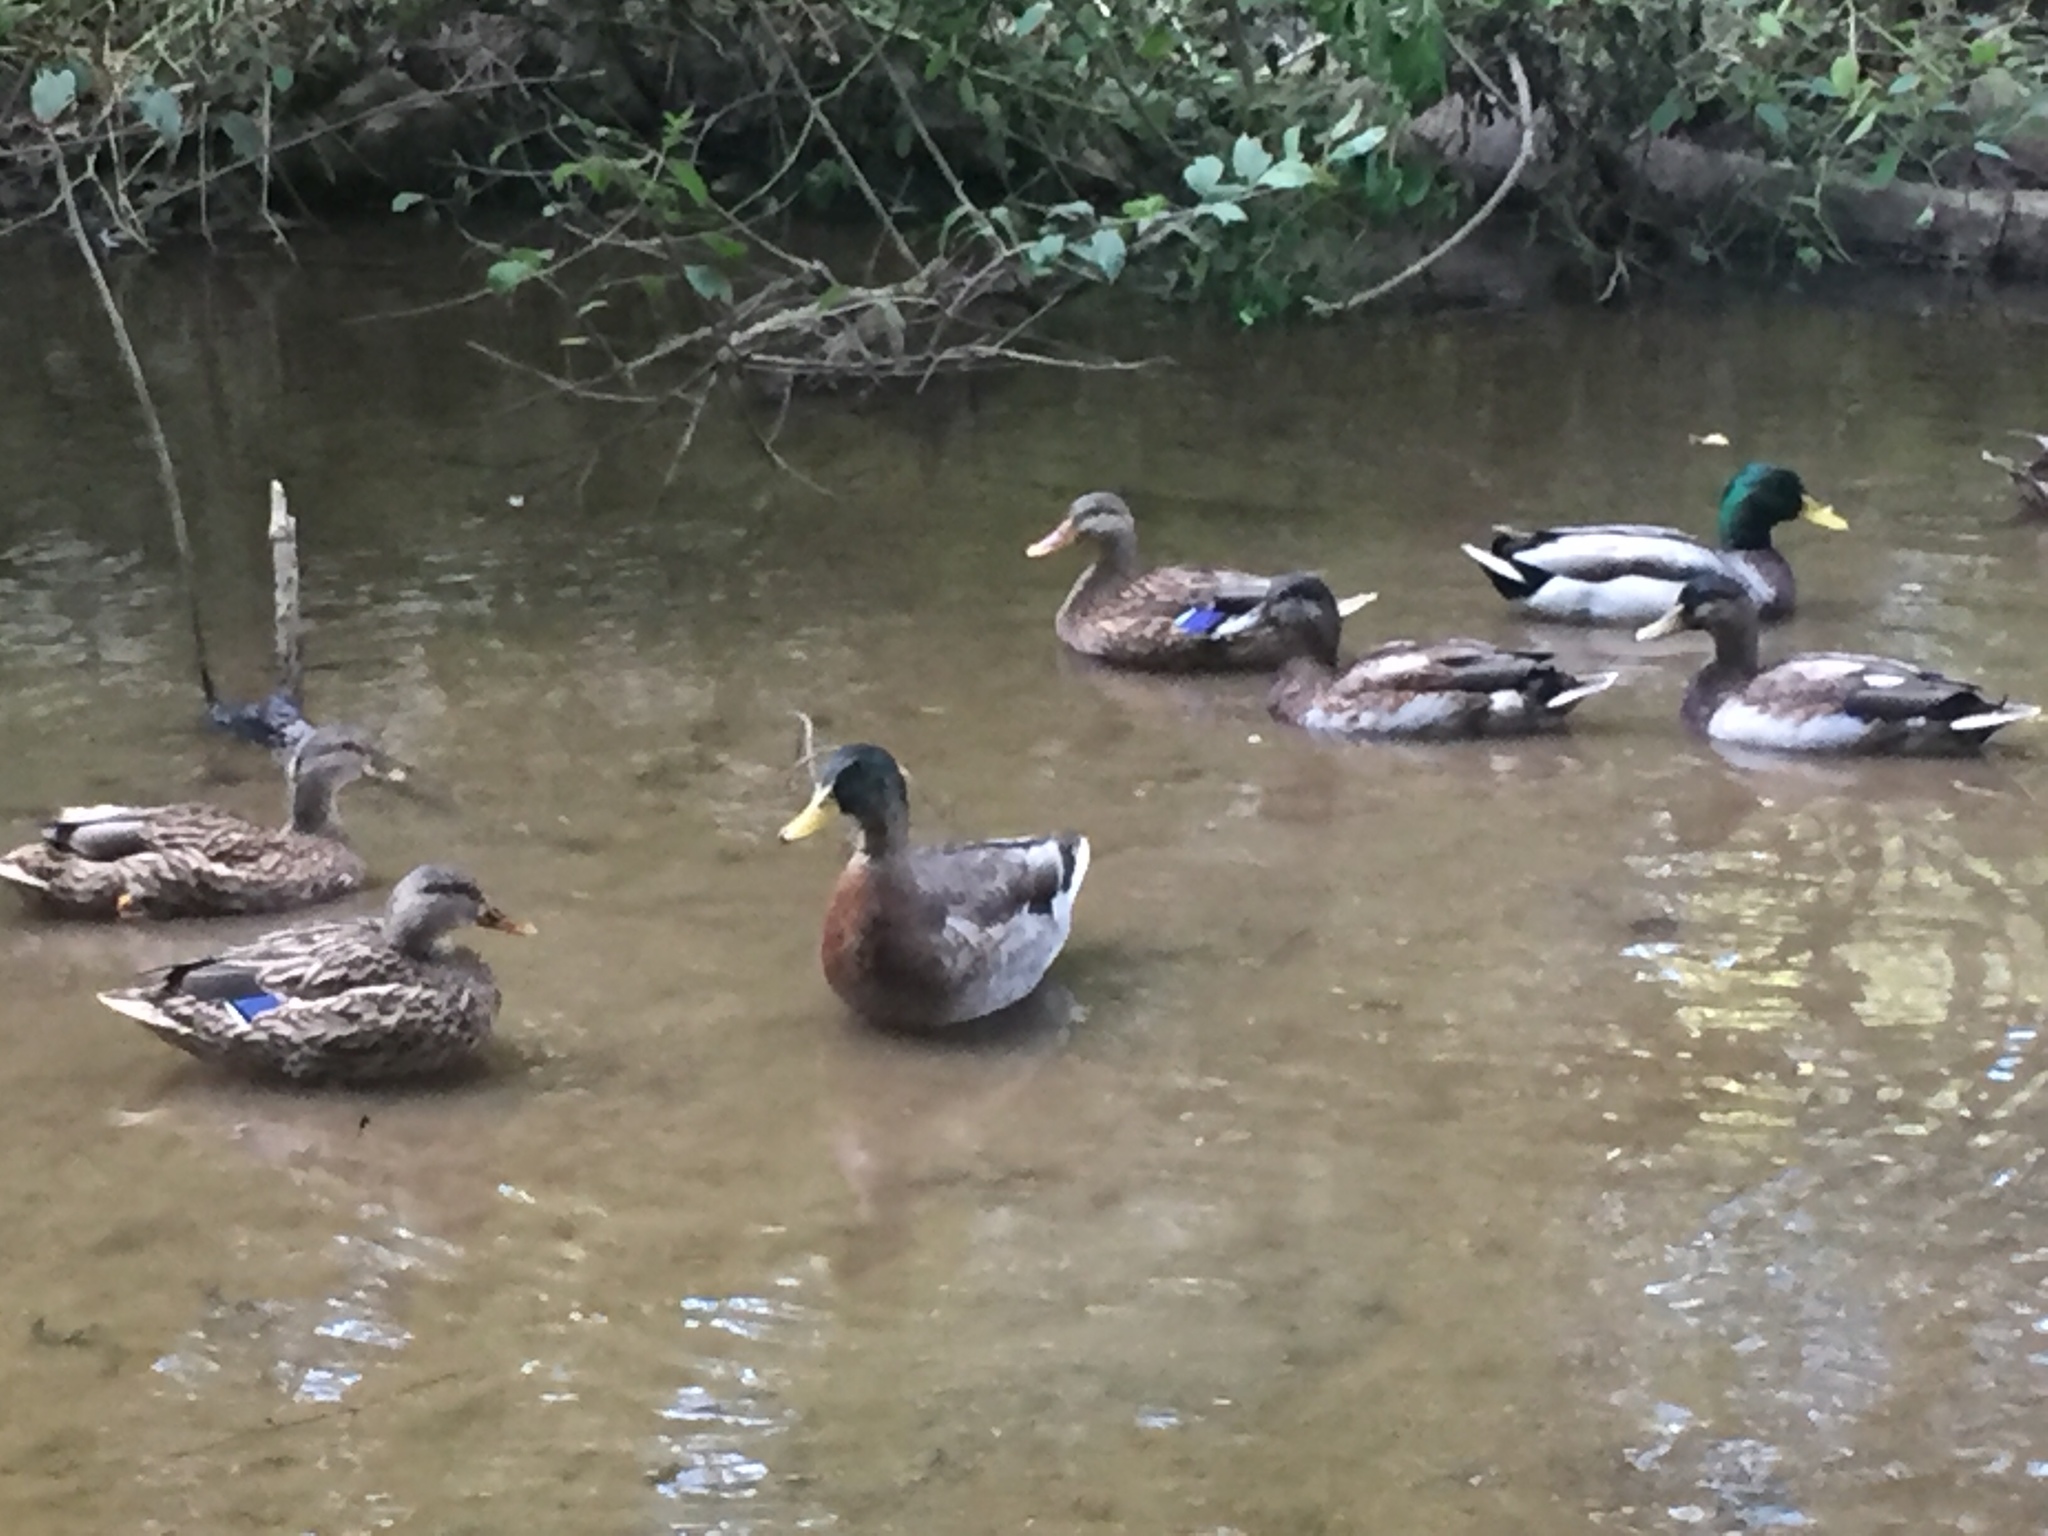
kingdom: Animalia
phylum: Chordata
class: Aves
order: Anseriformes
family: Anatidae
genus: Anas
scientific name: Anas platyrhynchos
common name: Mallard
